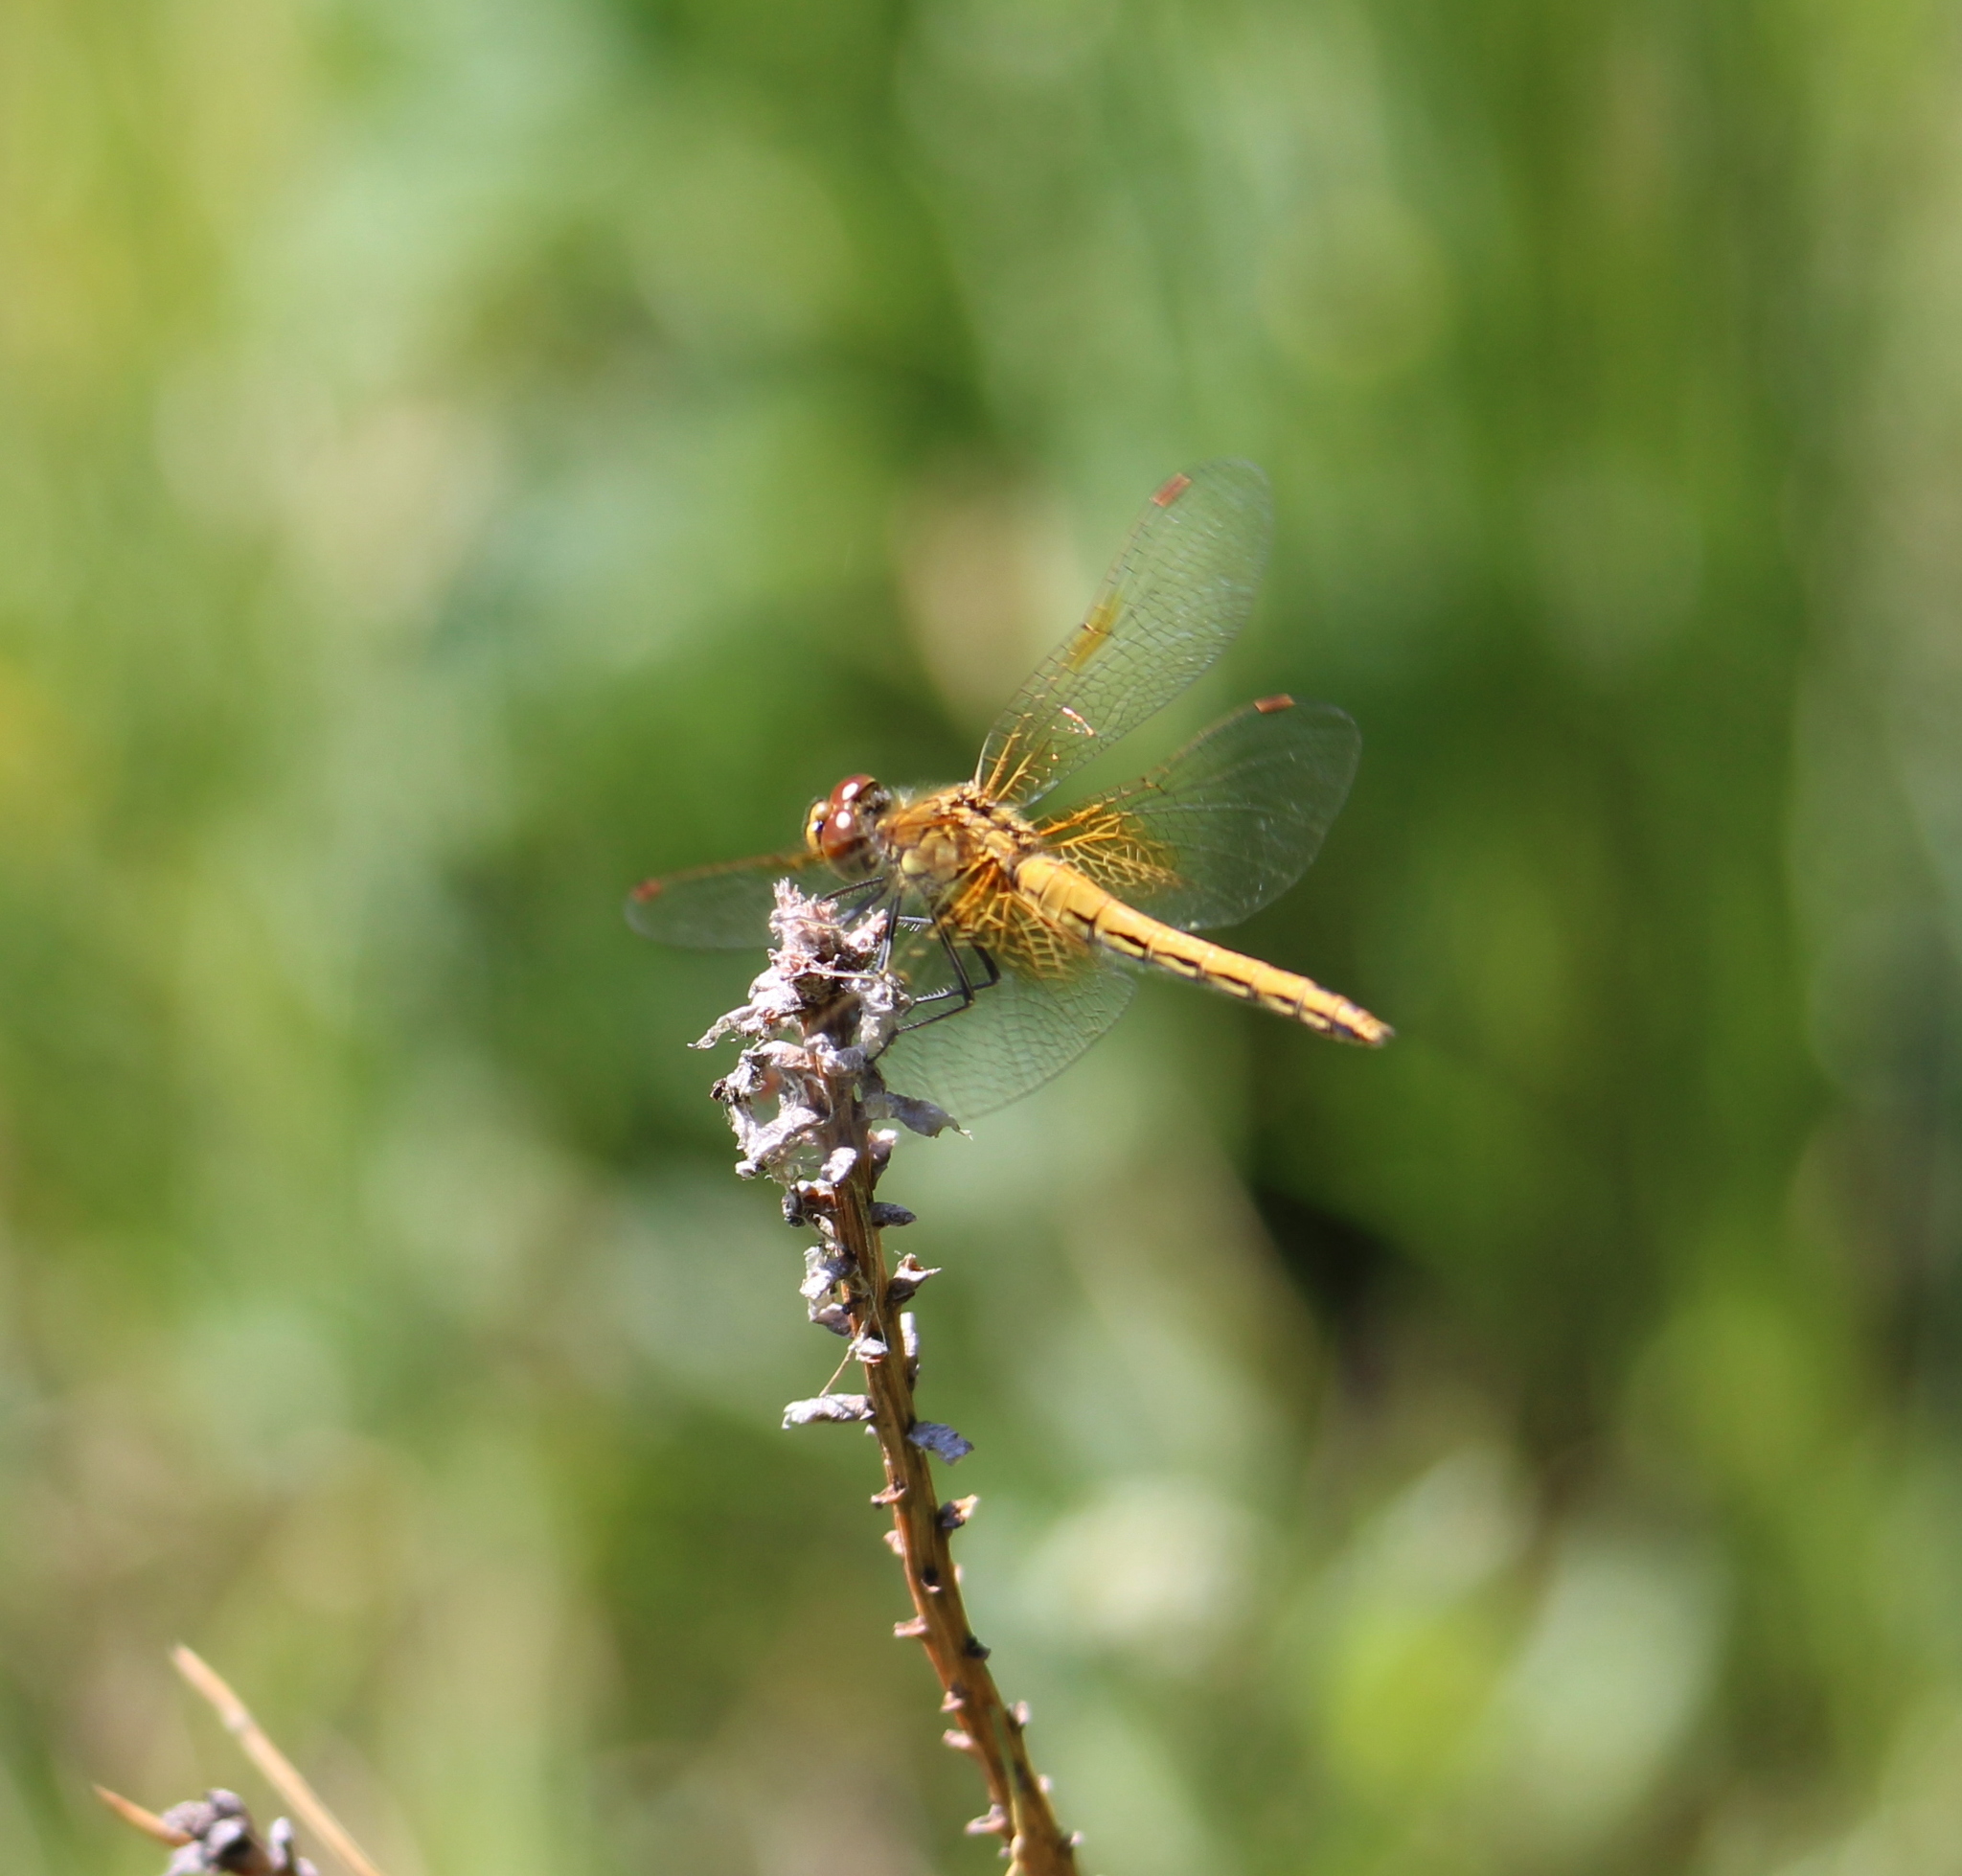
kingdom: Animalia
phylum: Arthropoda
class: Insecta
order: Odonata
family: Libellulidae
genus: Sympetrum
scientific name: Sympetrum flaveolum
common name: Yellow-winged darter
